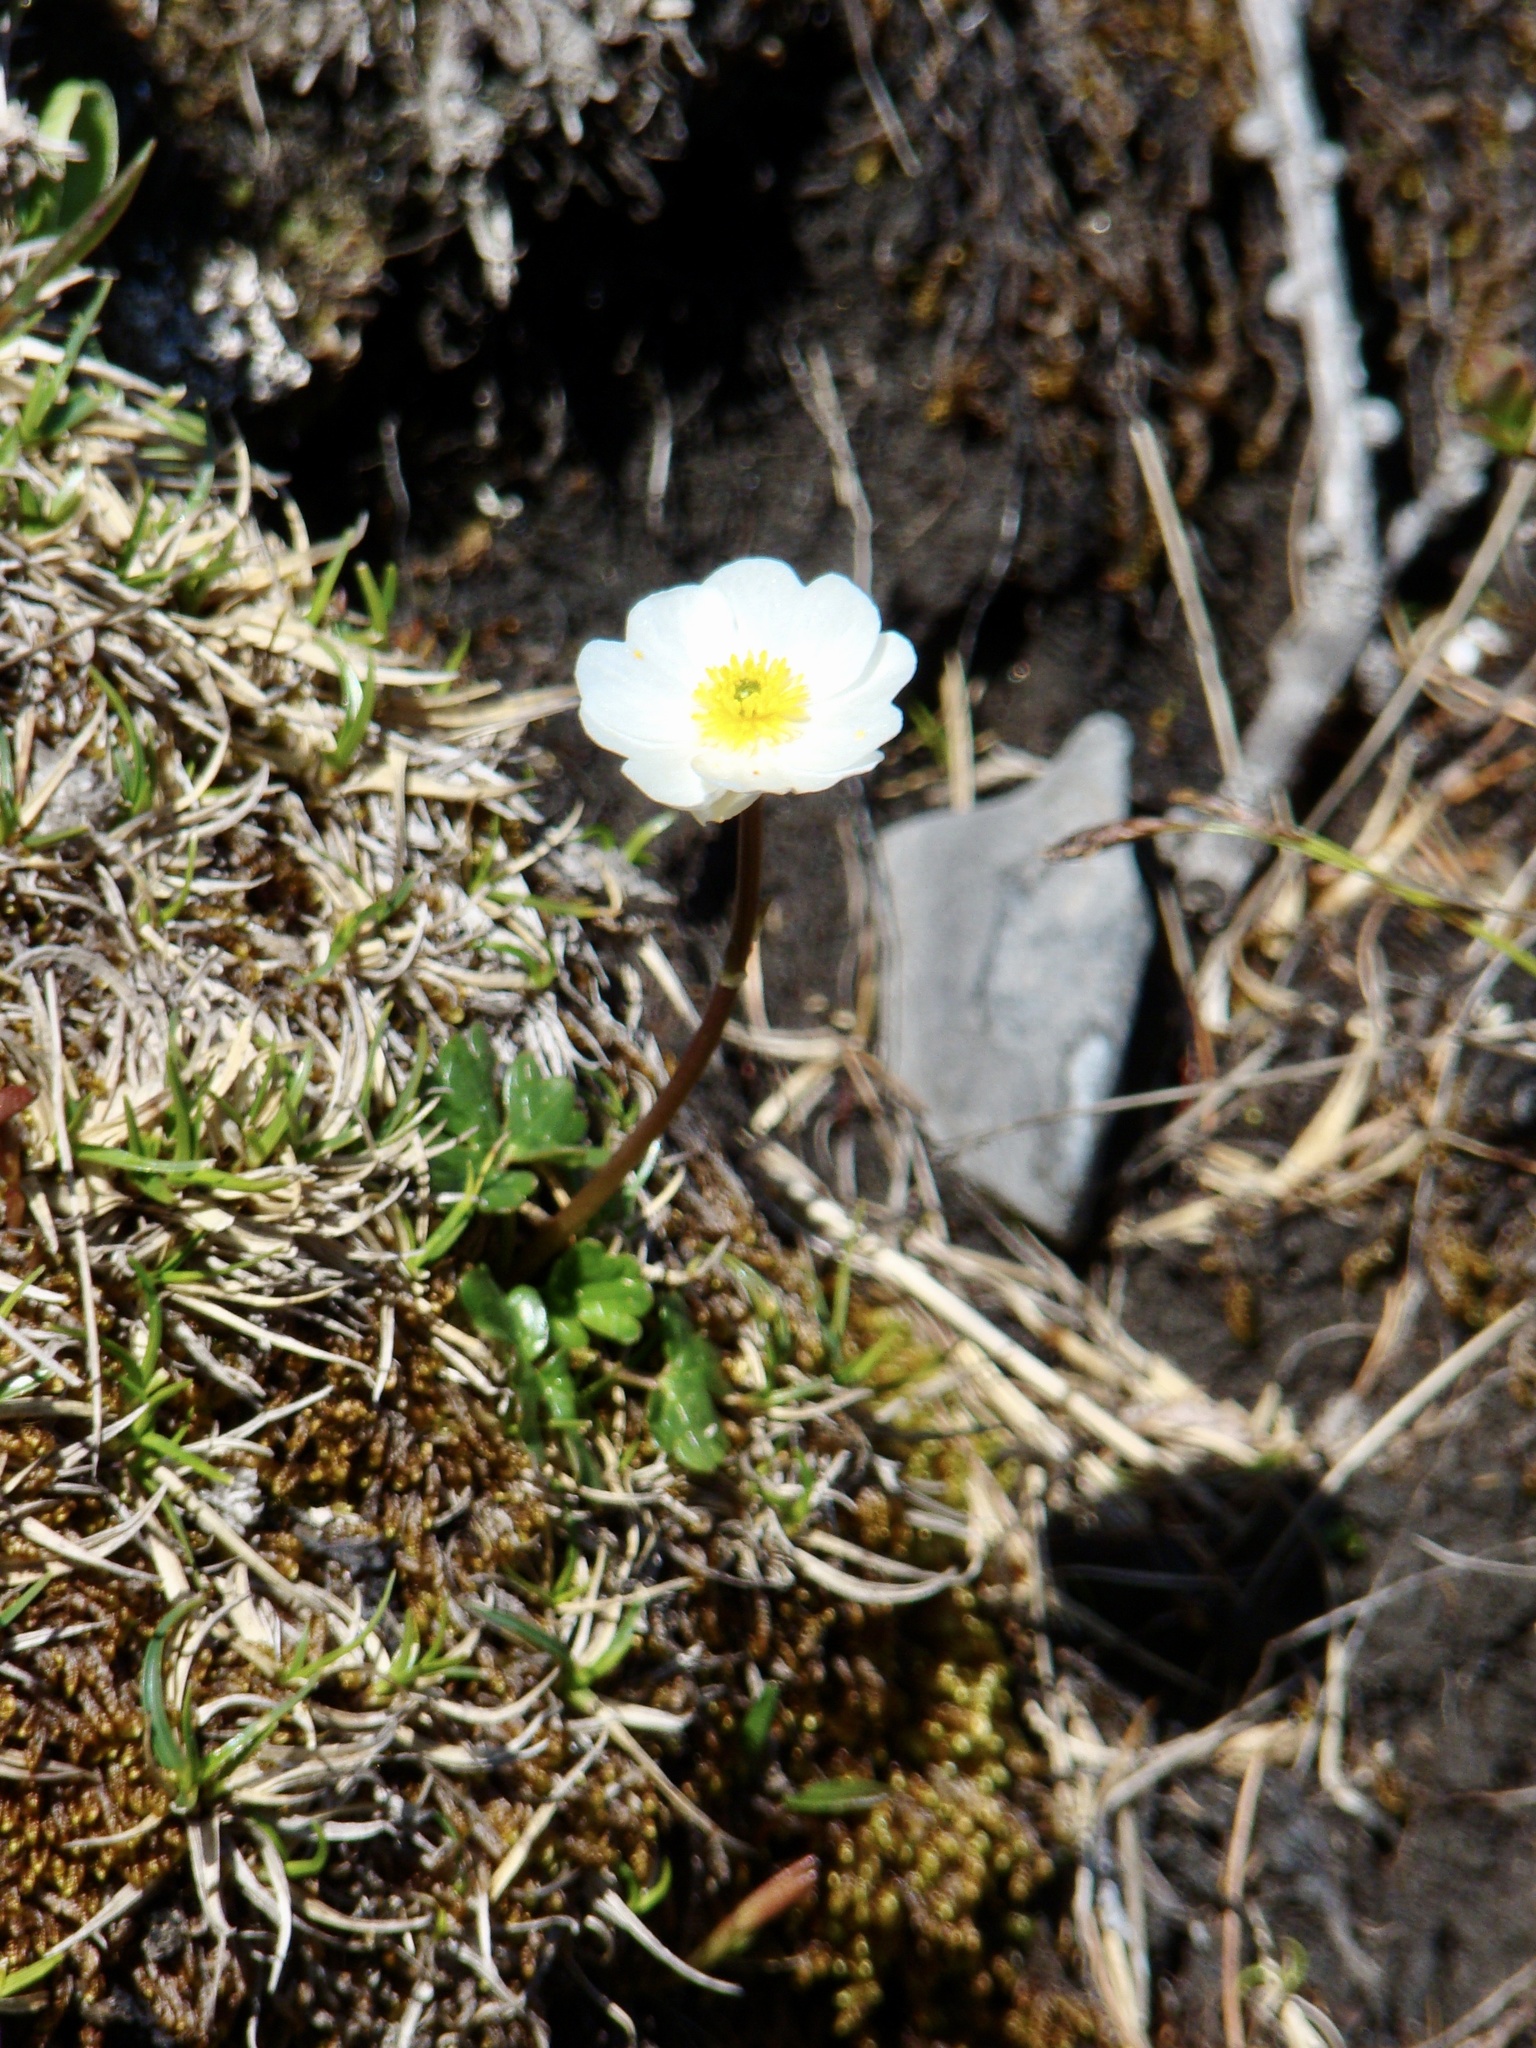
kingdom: Plantae
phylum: Tracheophyta
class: Magnoliopsida
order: Ranunculales
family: Ranunculaceae
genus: Ranunculus
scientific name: Ranunculus alpestris
